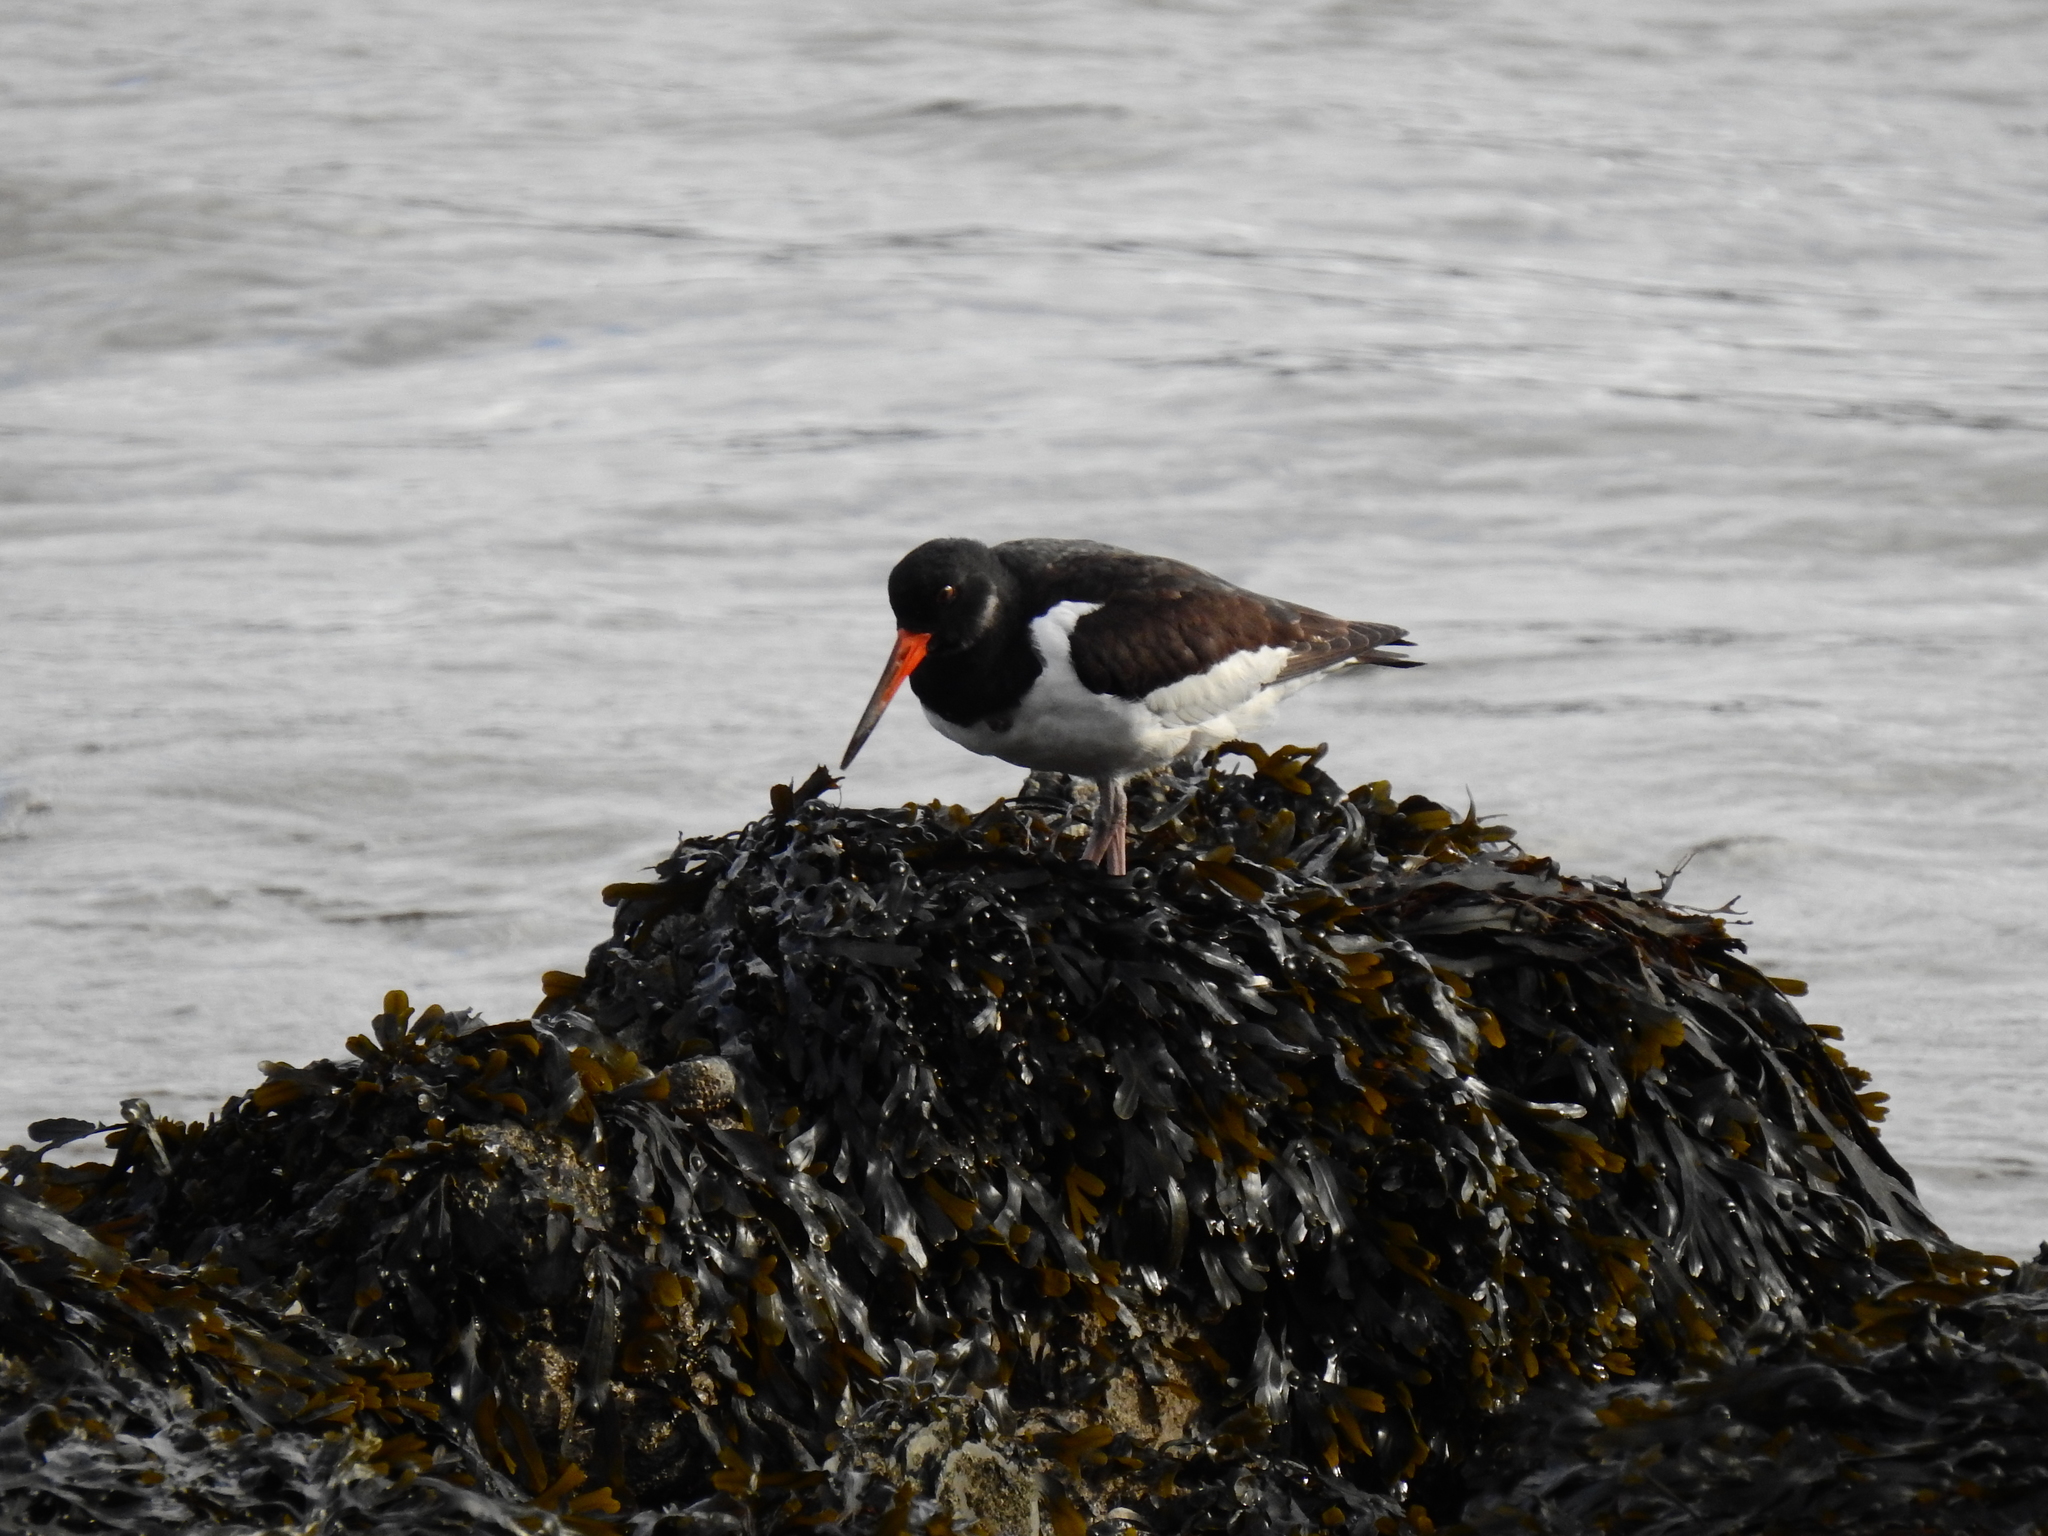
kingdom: Animalia
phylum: Chordata
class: Aves
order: Charadriiformes
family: Haematopodidae
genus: Haematopus
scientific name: Haematopus ostralegus
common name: Eurasian oystercatcher
